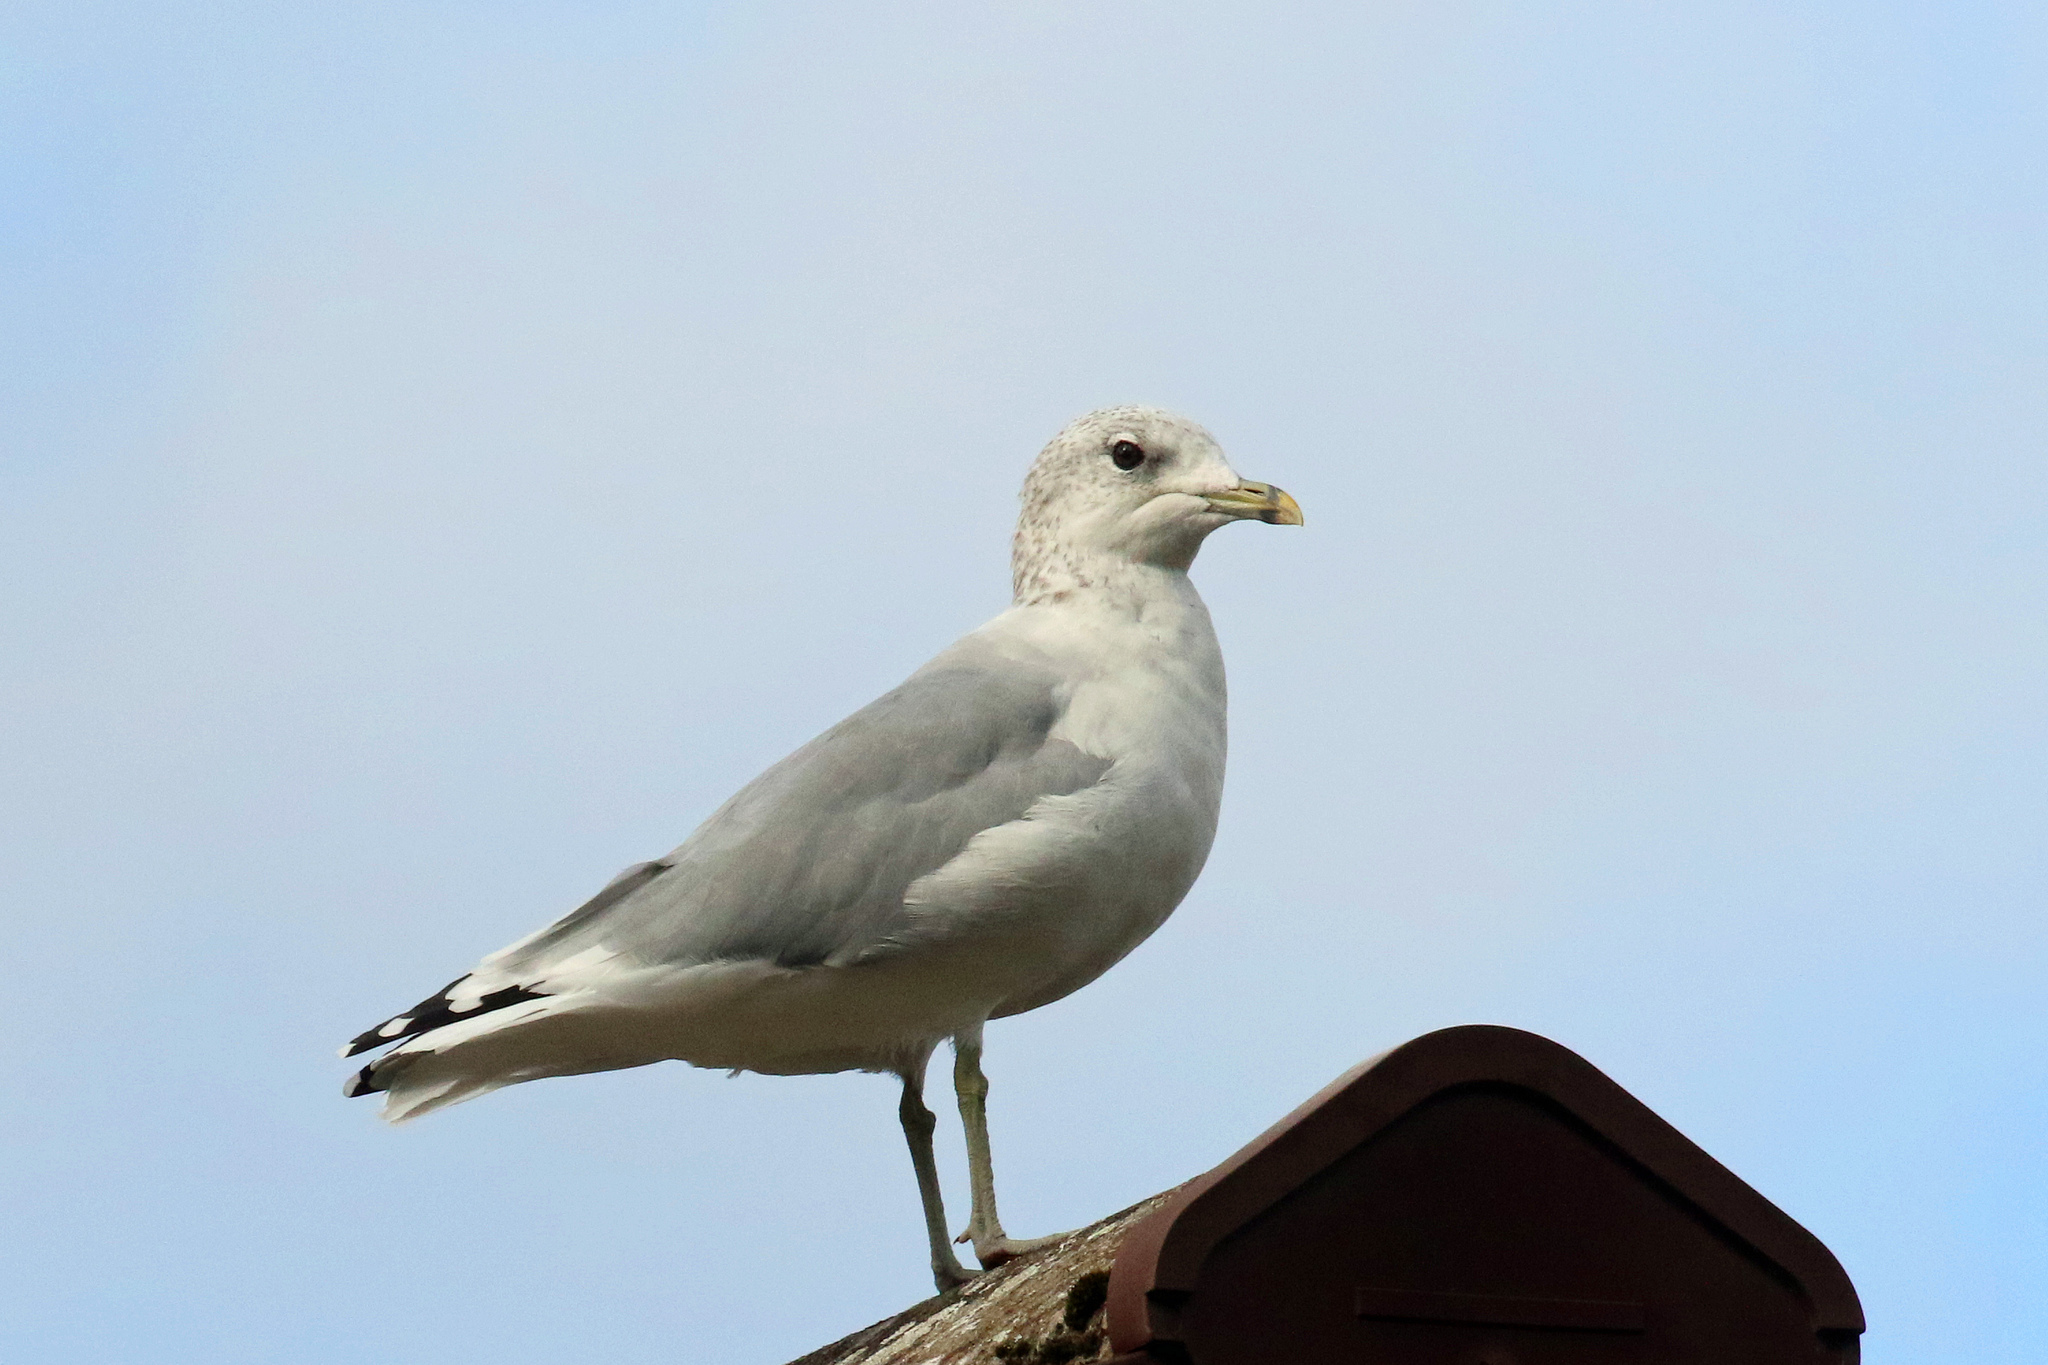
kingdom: Animalia
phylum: Chordata
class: Aves
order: Charadriiformes
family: Laridae
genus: Larus
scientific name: Larus canus
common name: Mew gull
